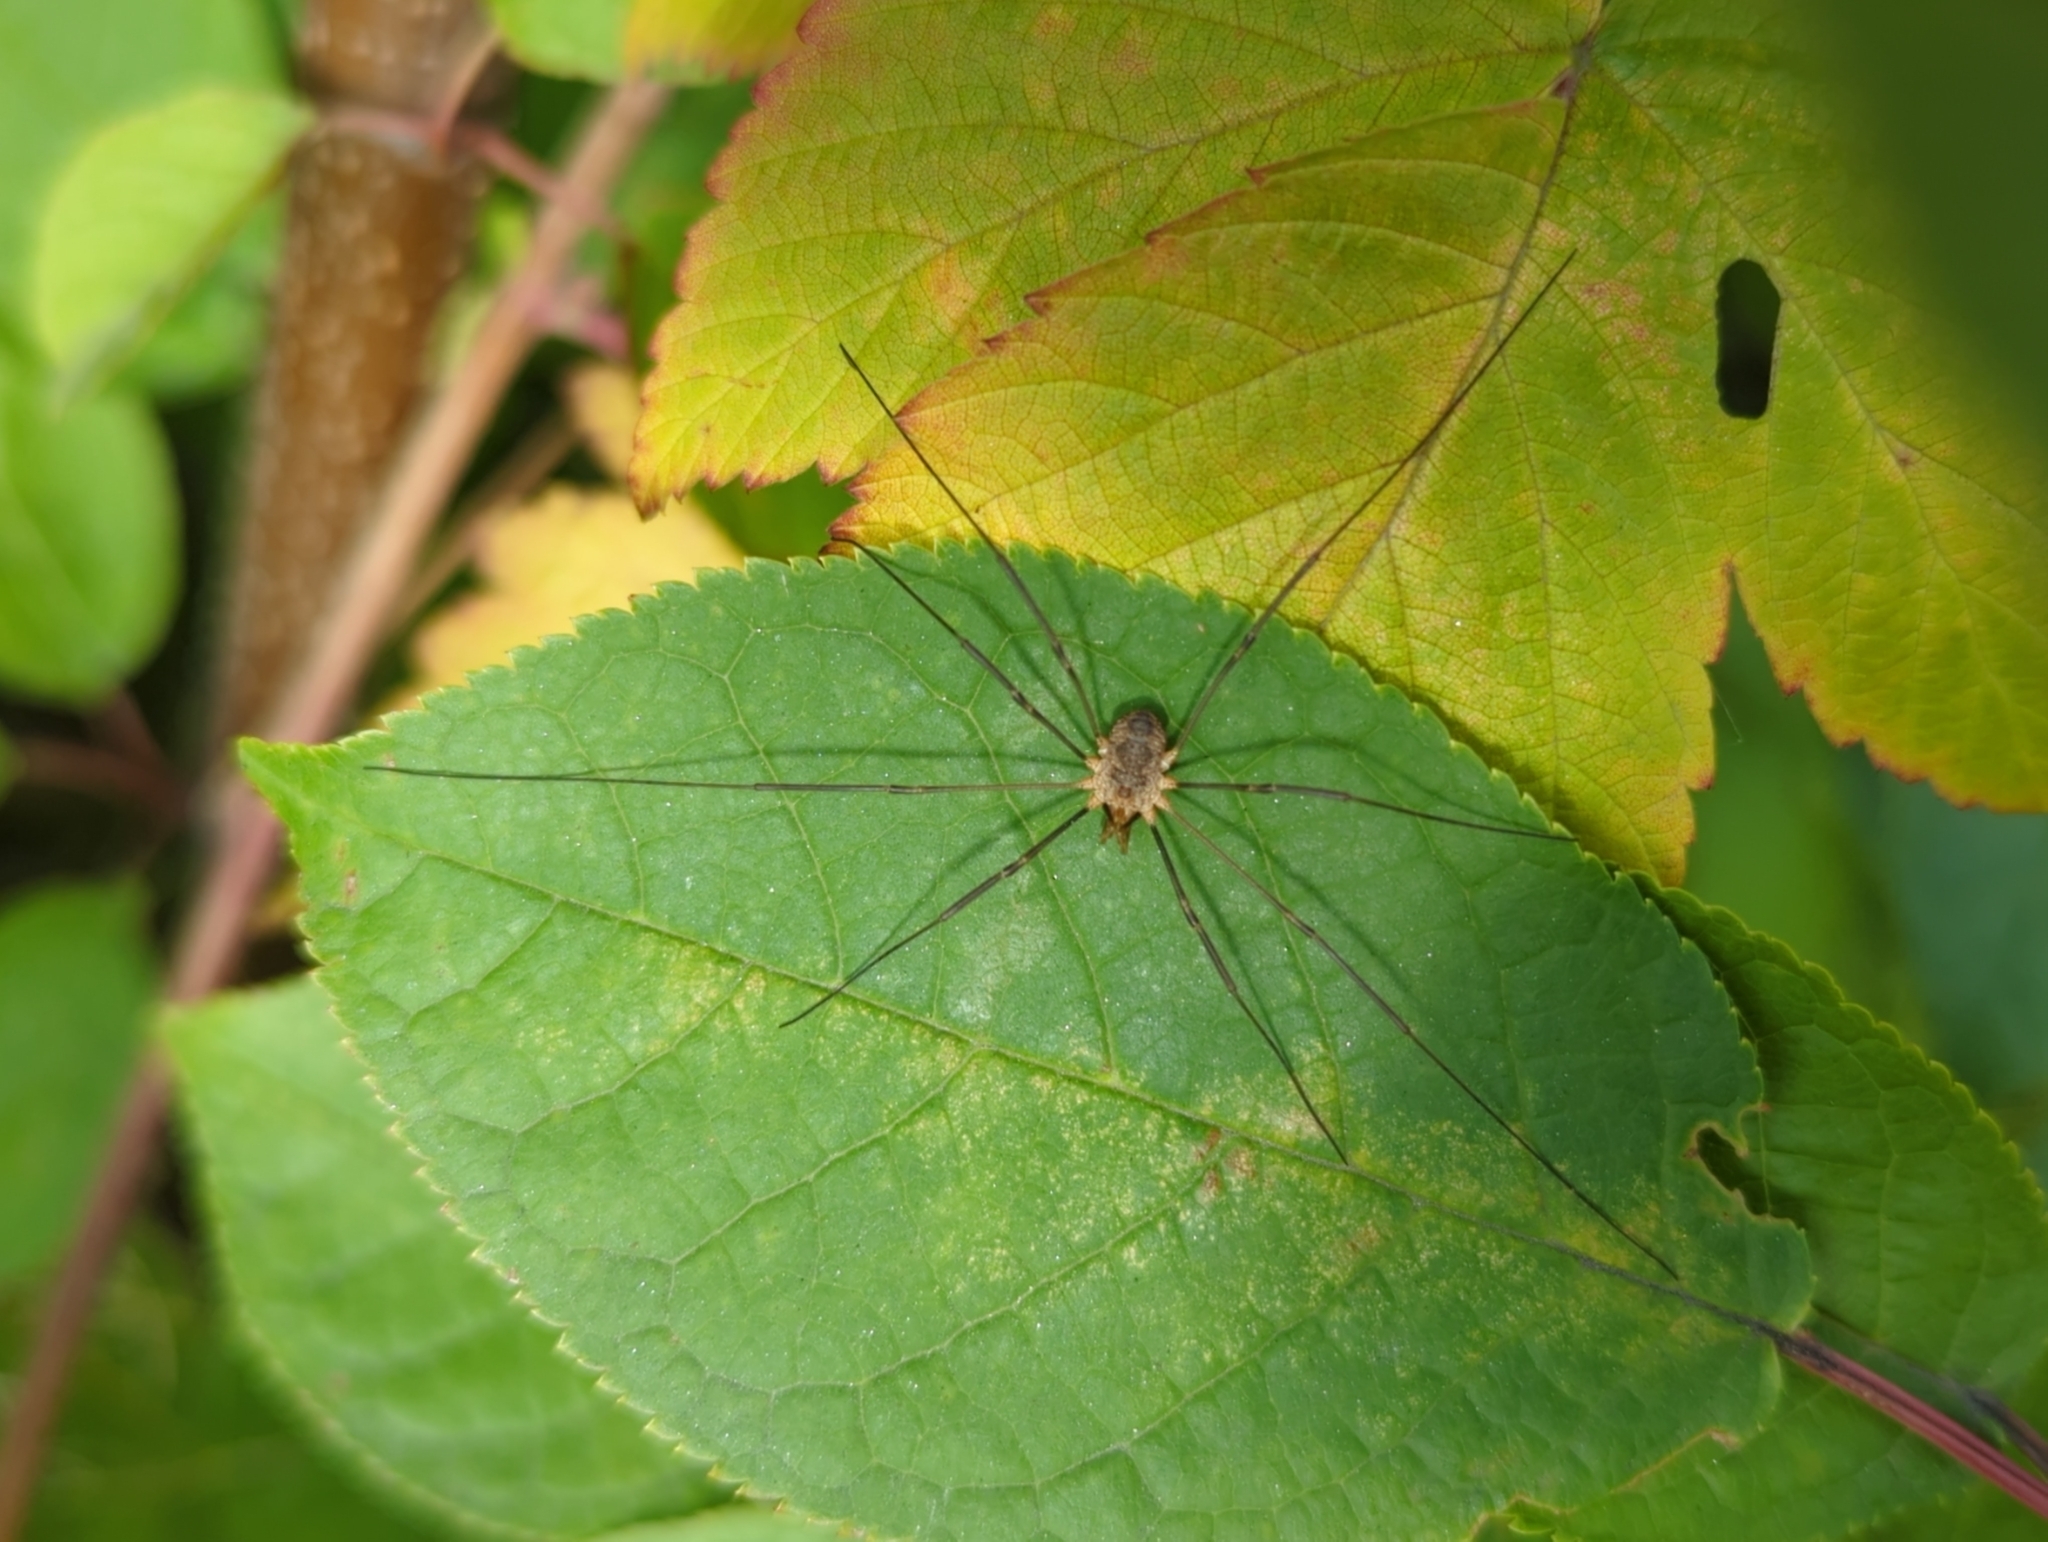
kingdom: Animalia
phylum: Arthropoda
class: Arachnida
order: Opiliones
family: Phalangiidae
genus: Phalangium
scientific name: Phalangium opilio
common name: Daddy longleg
